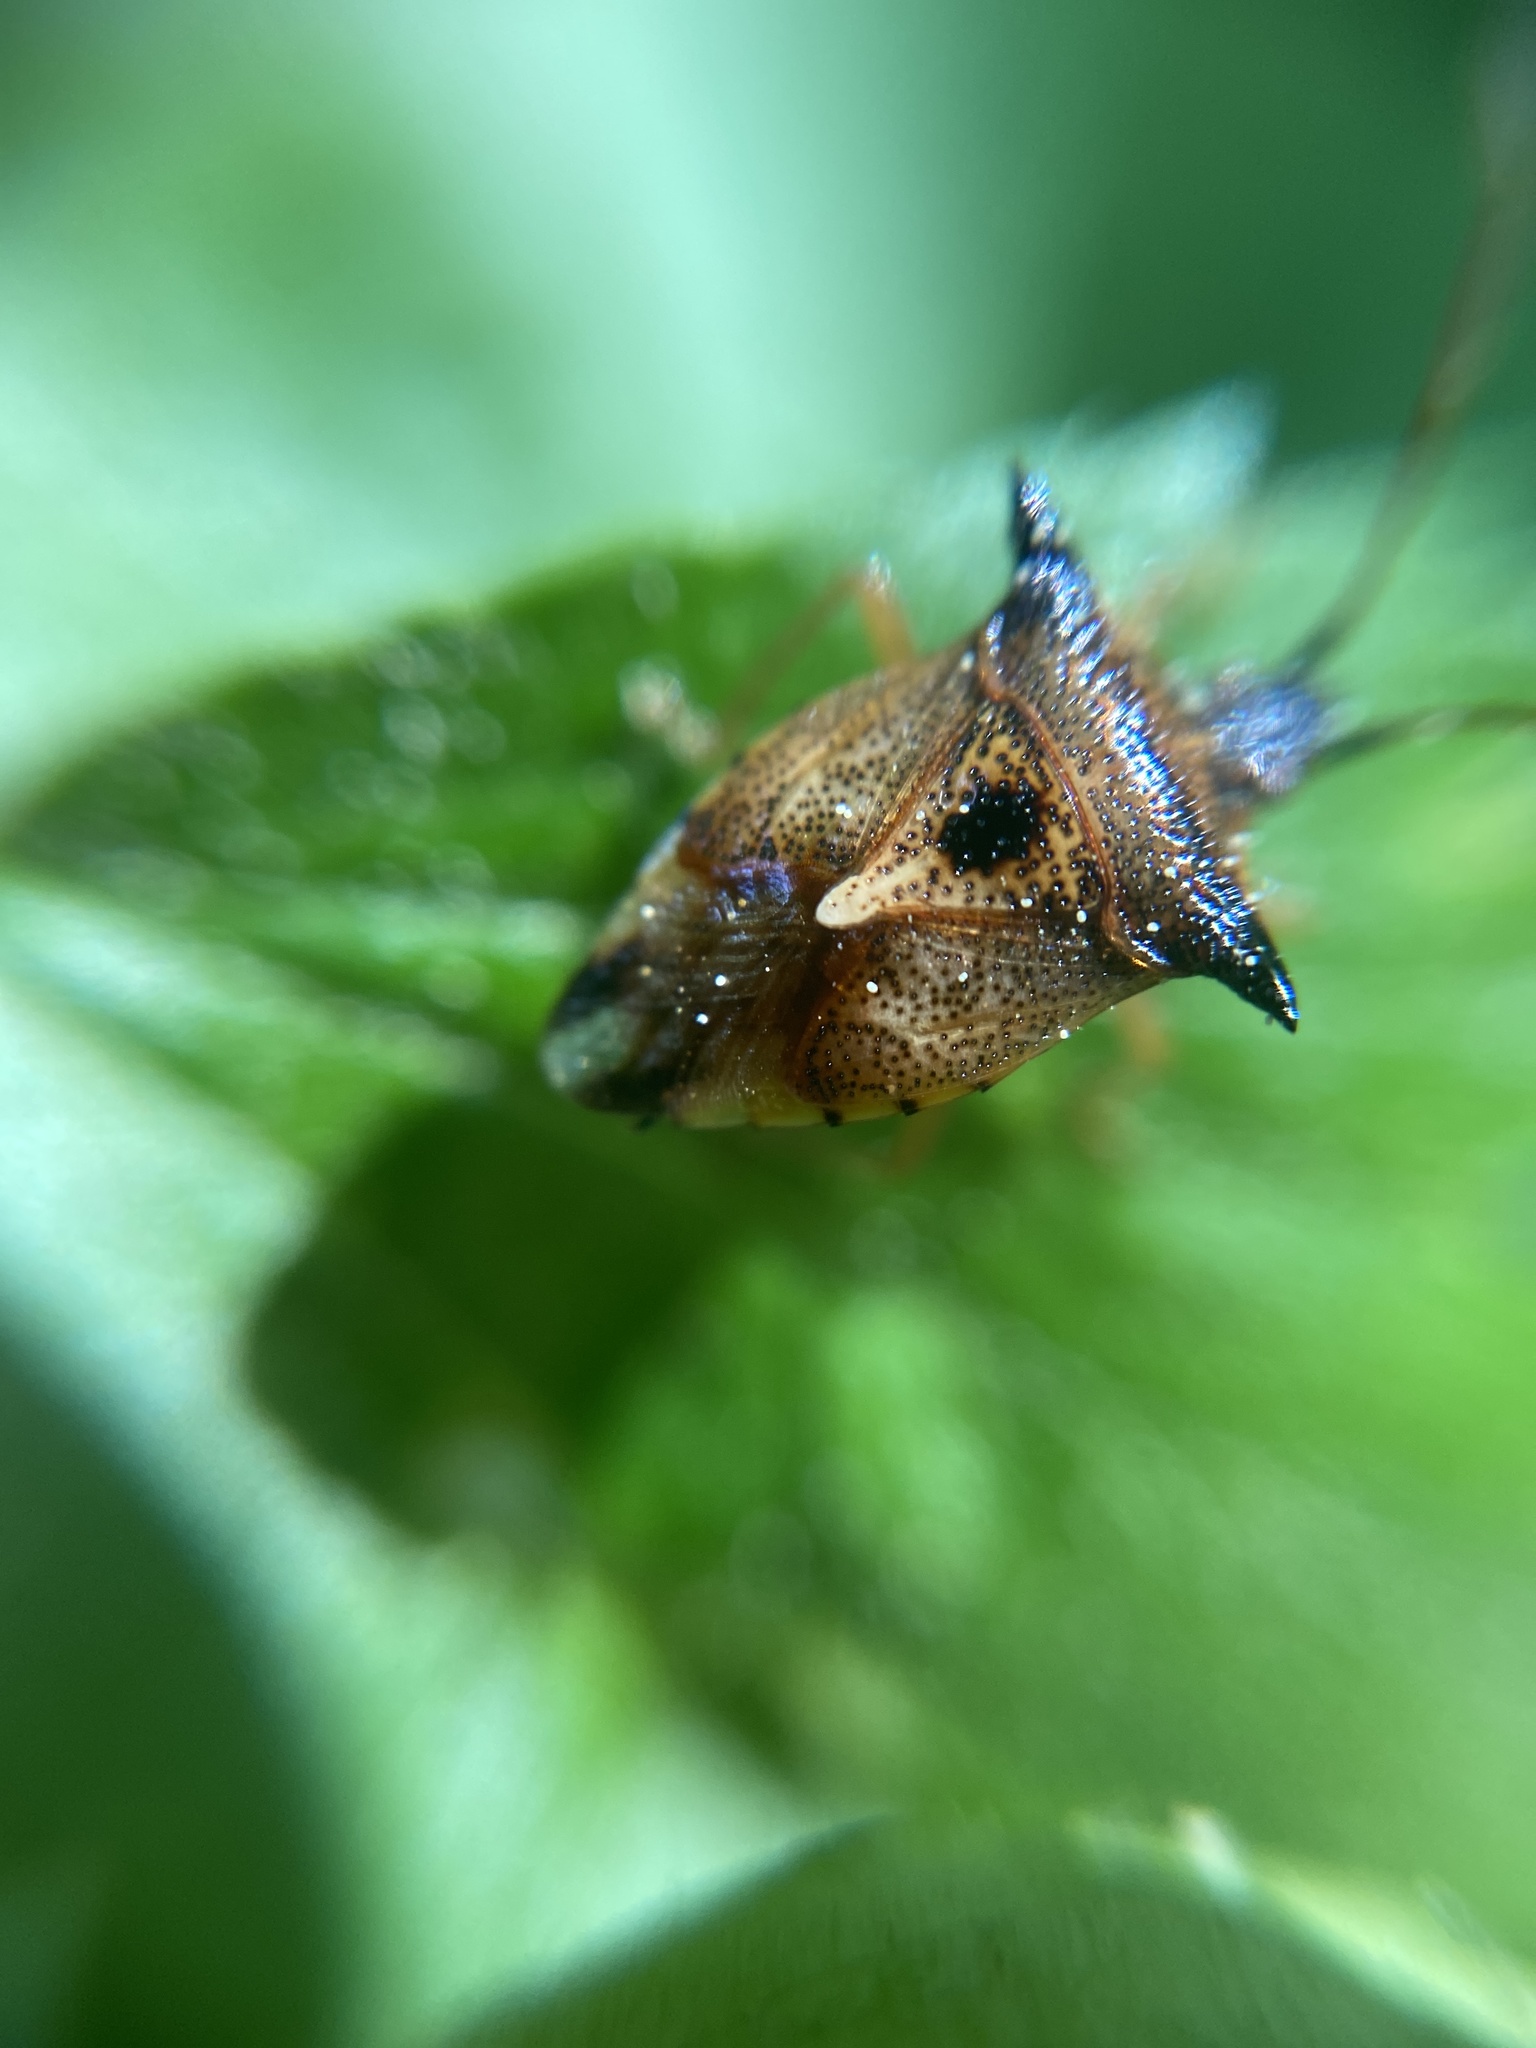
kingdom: Animalia
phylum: Arthropoda
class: Insecta
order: Hemiptera
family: Acanthosomatidae
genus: Elasmucha
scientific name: Elasmucha ferrugata
